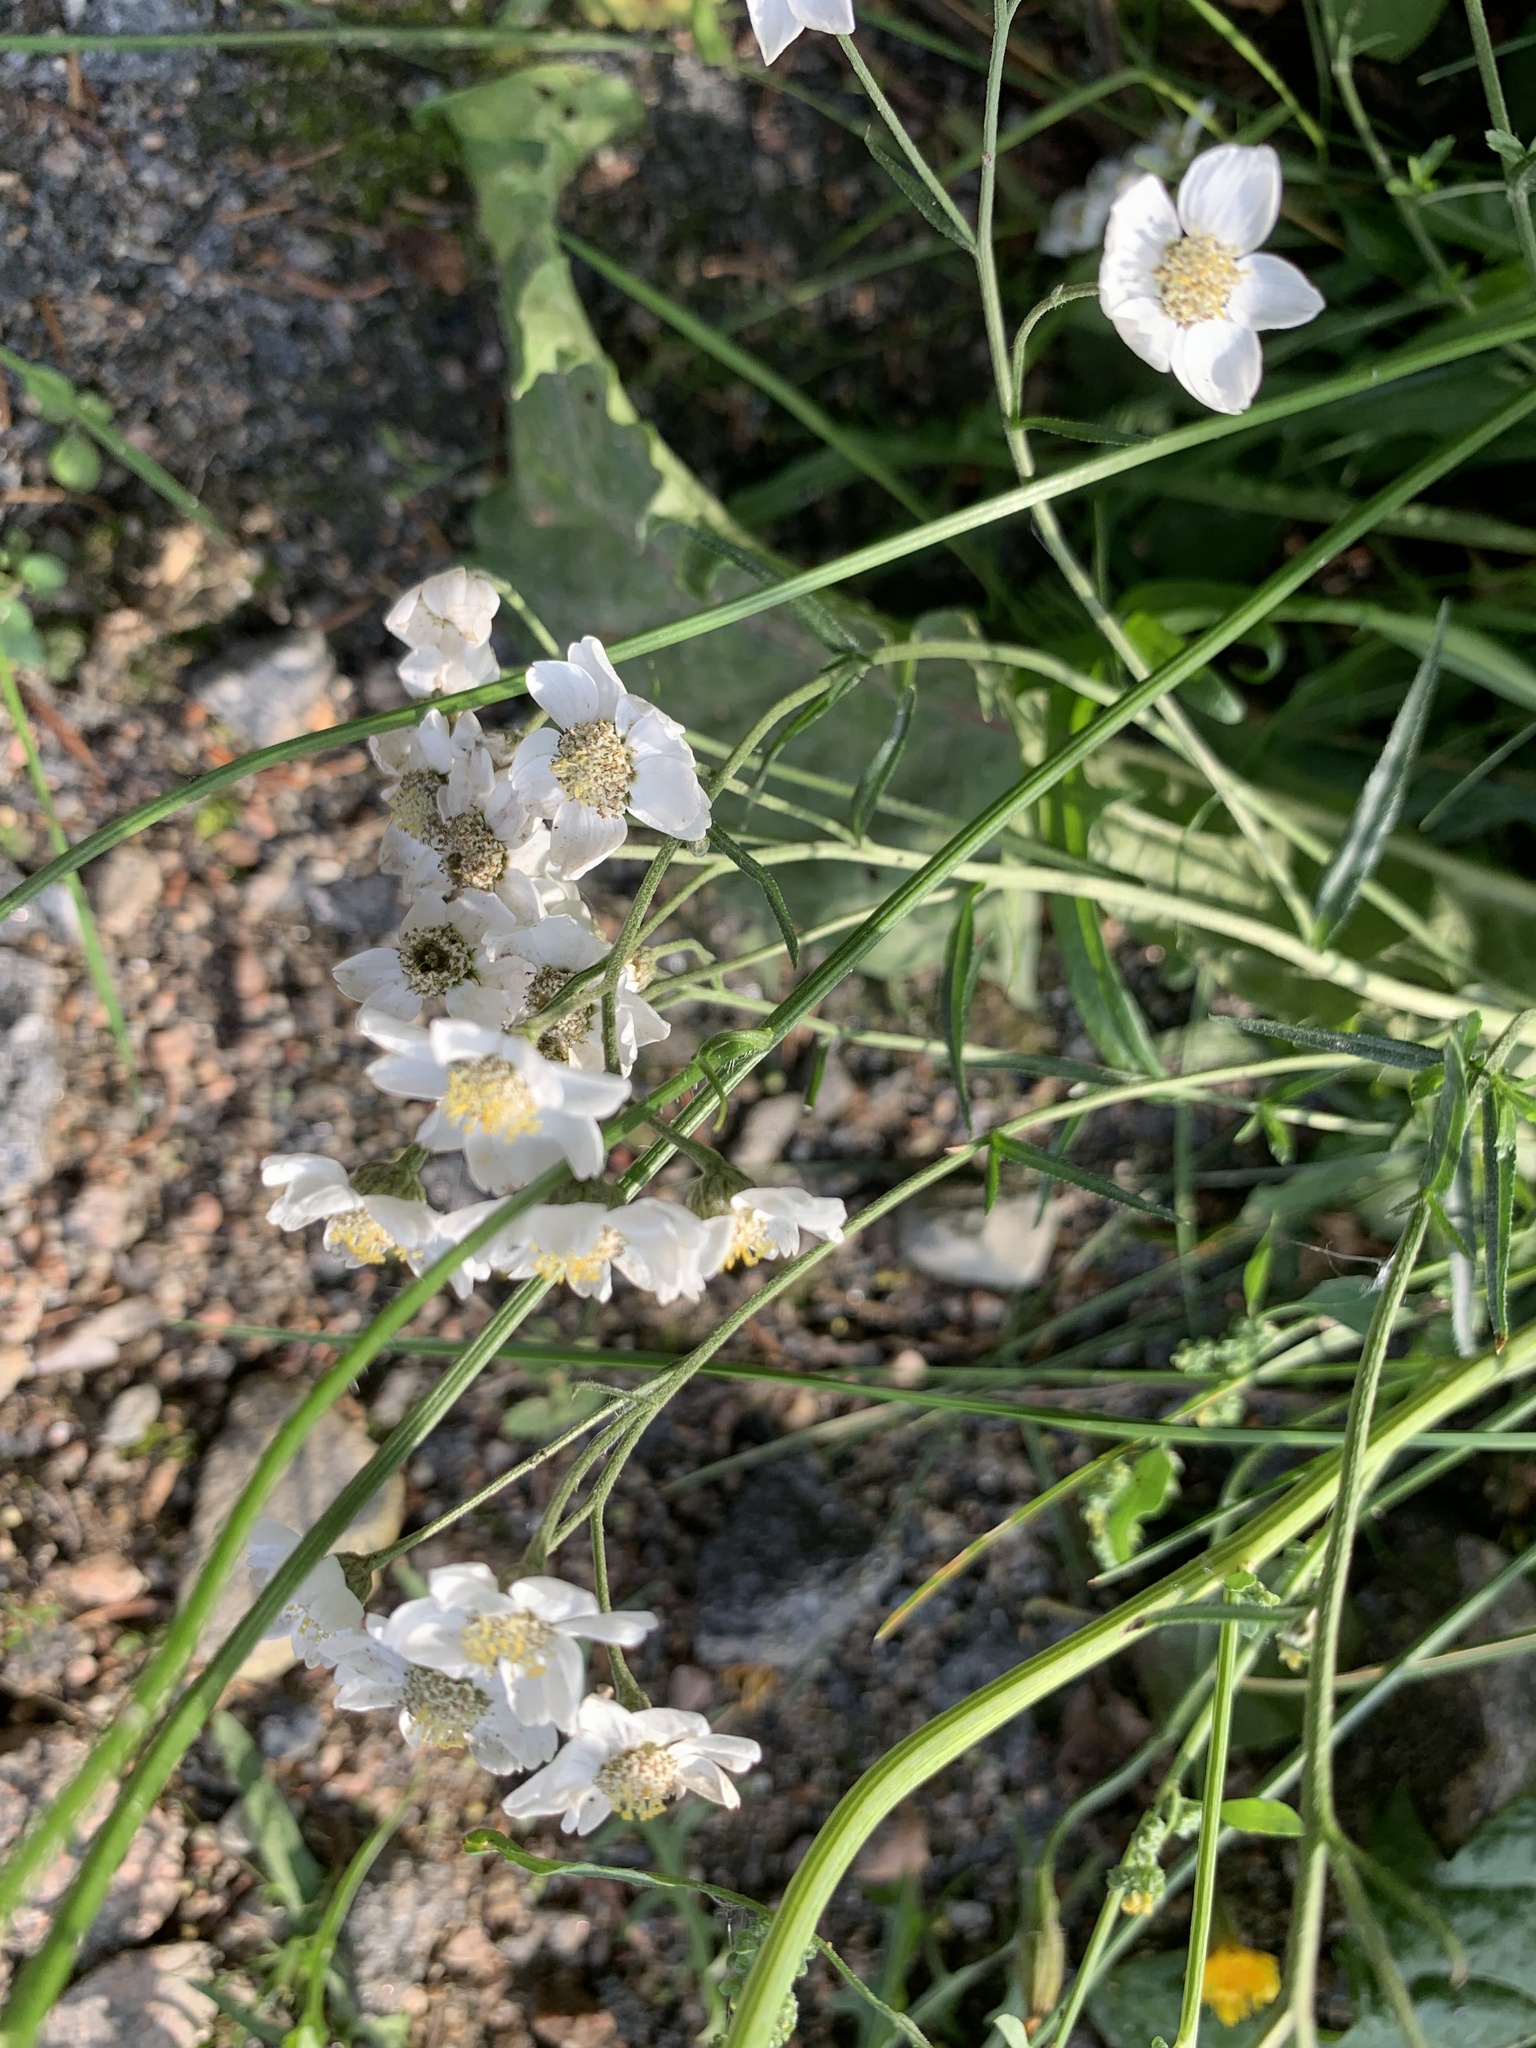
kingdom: Plantae
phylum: Tracheophyta
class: Magnoliopsida
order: Asterales
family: Asteraceae
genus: Achillea
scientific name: Achillea ptarmica
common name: Sneezeweed
